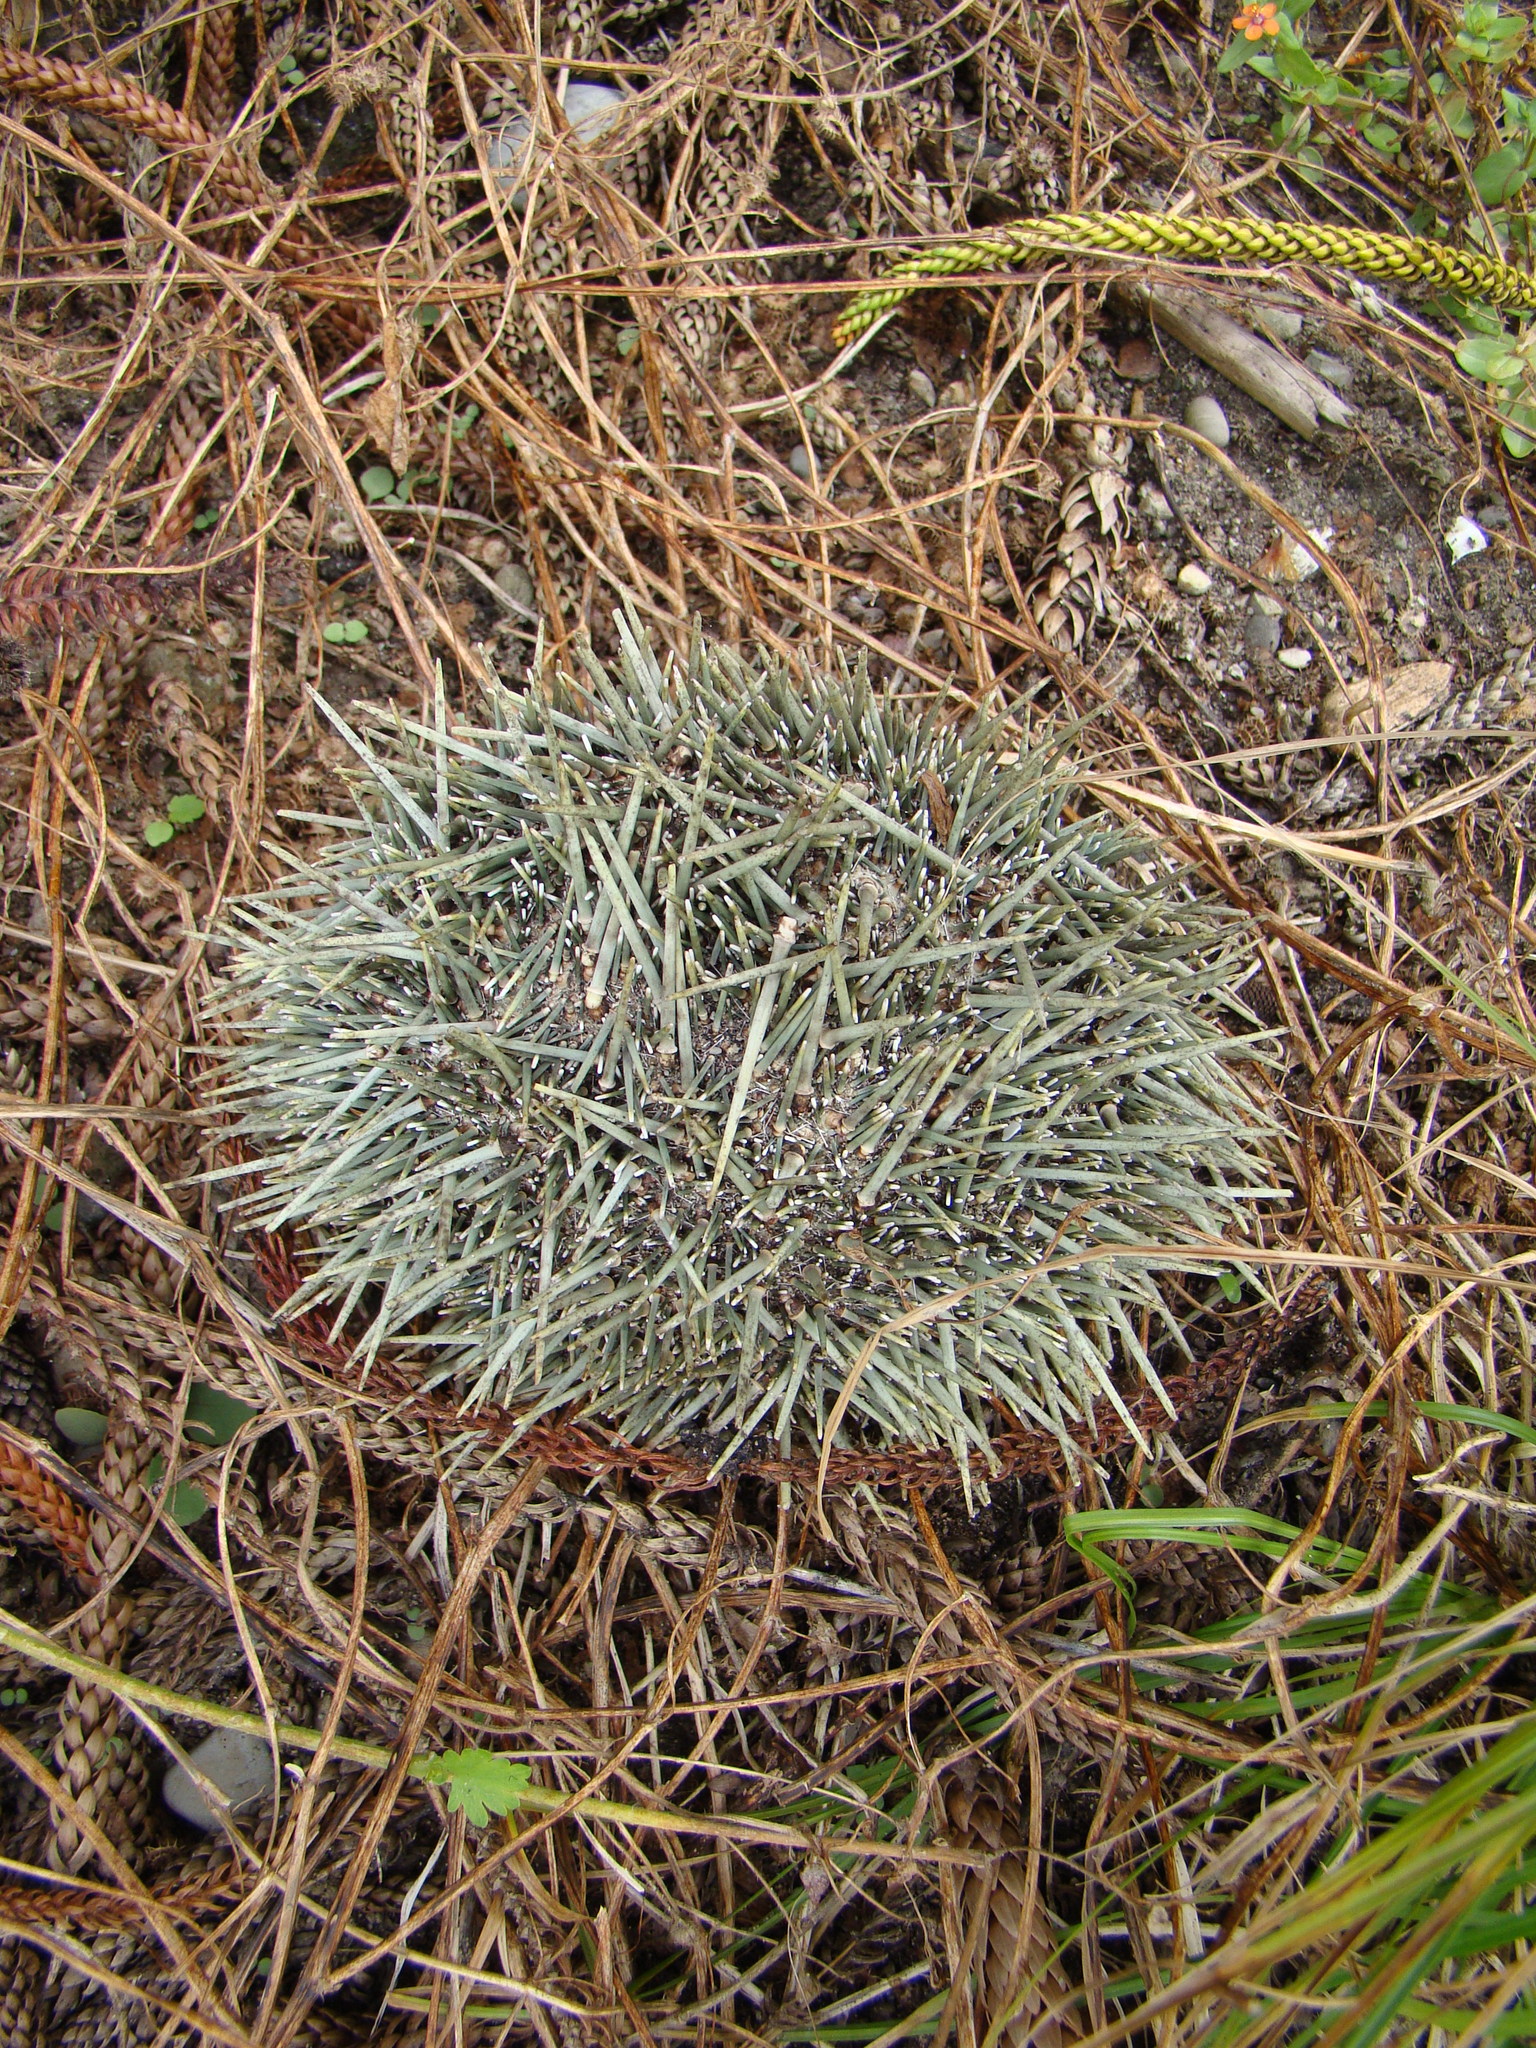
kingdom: Animalia
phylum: Echinodermata
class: Echinoidea
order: Camarodonta
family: Echinometridae
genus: Evechinus
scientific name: Evechinus chloroticus
